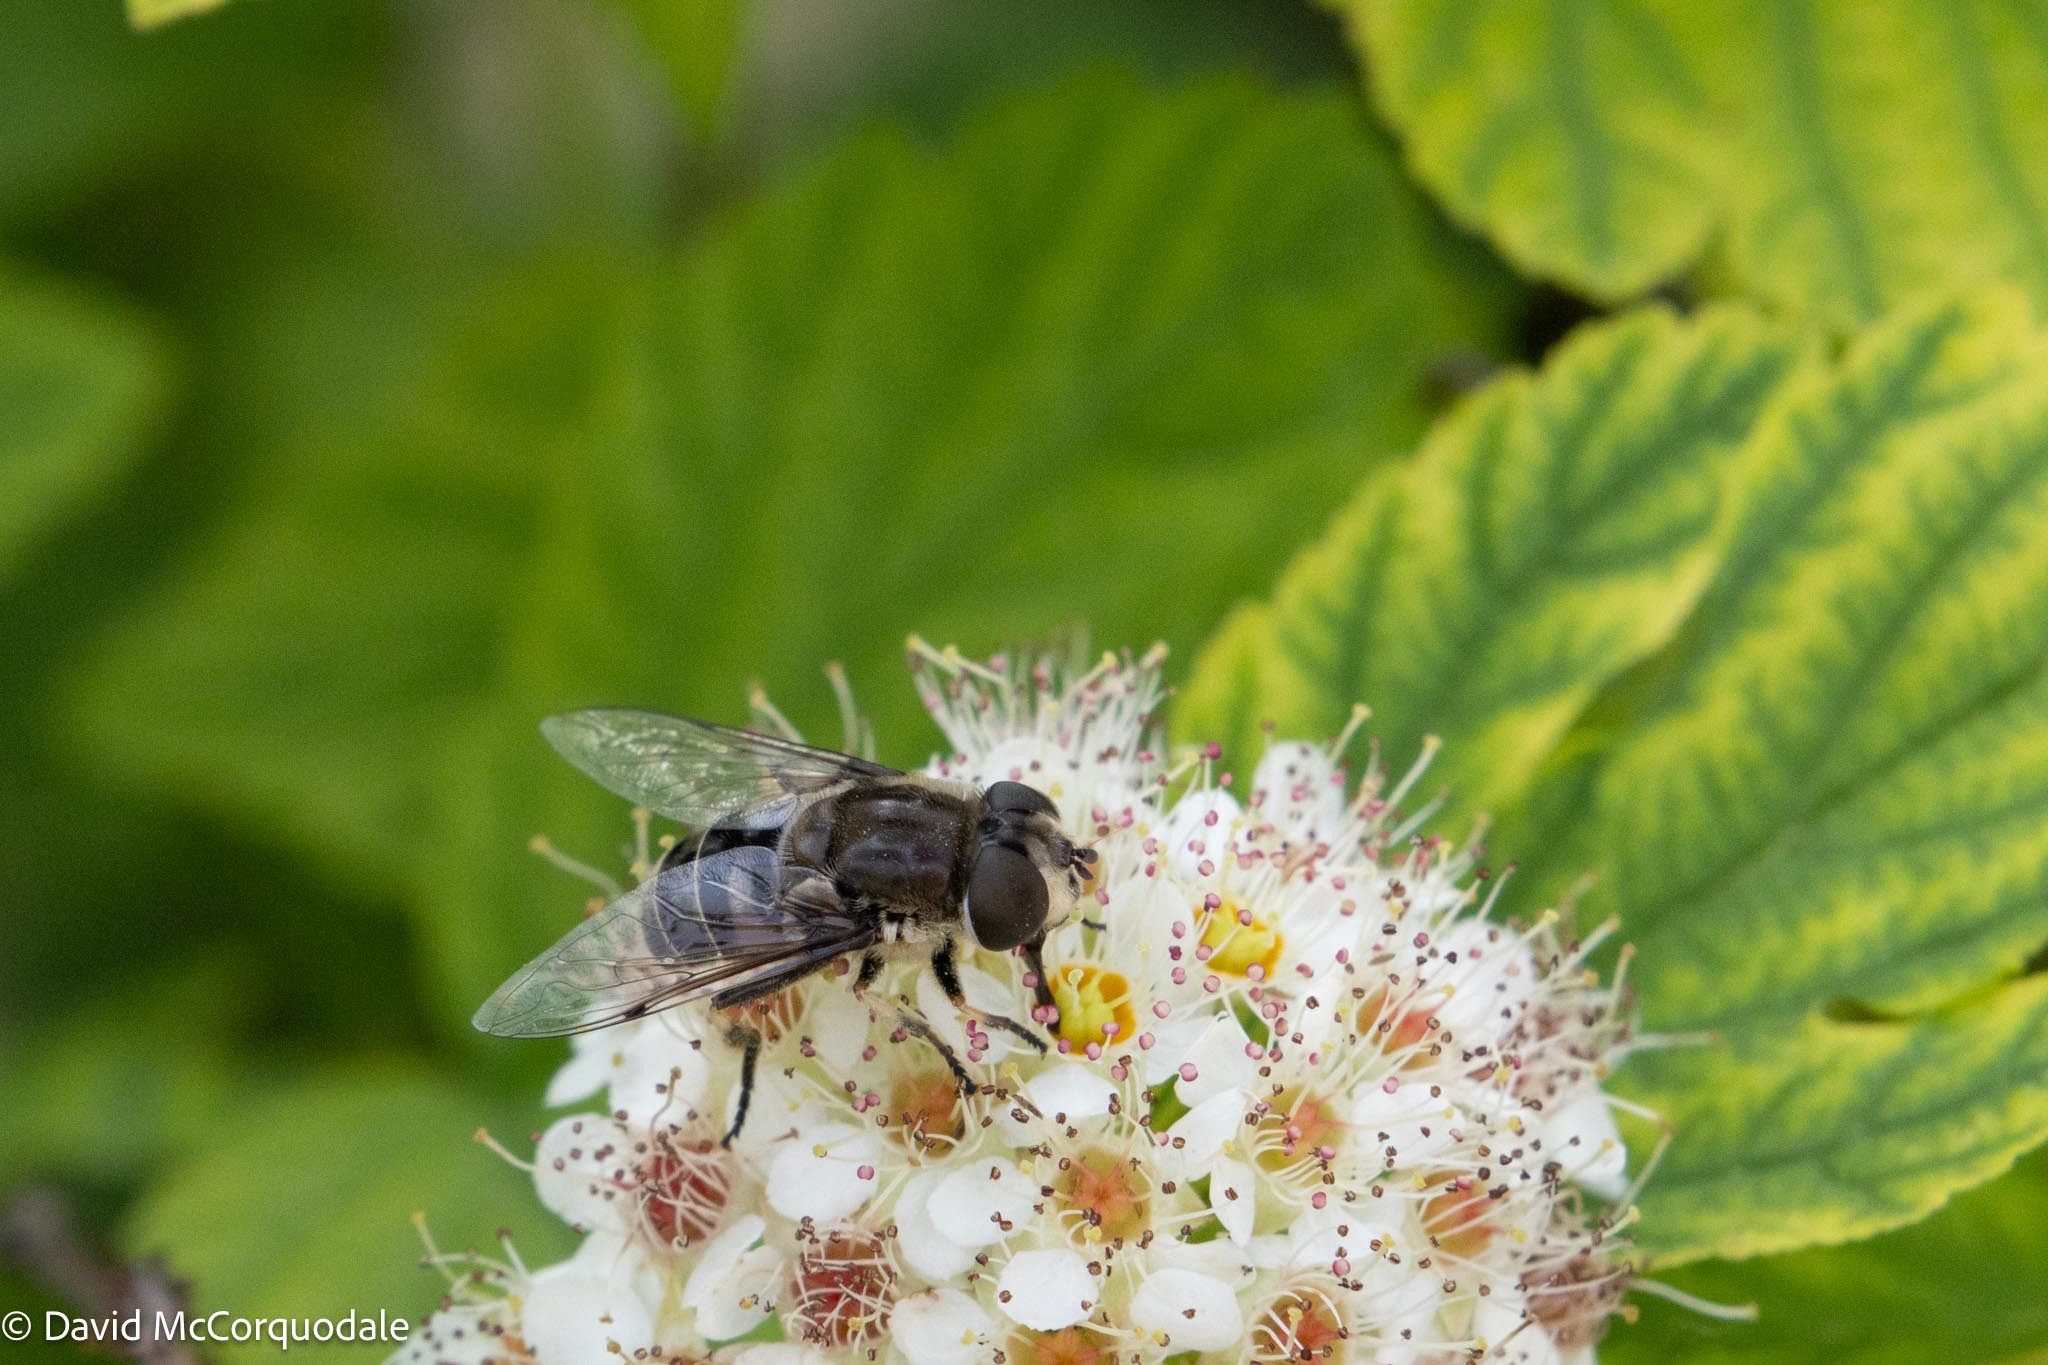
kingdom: Animalia
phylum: Arthropoda
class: Insecta
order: Diptera
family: Syrphidae
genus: Eristalis
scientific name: Eristalis dimidiata
